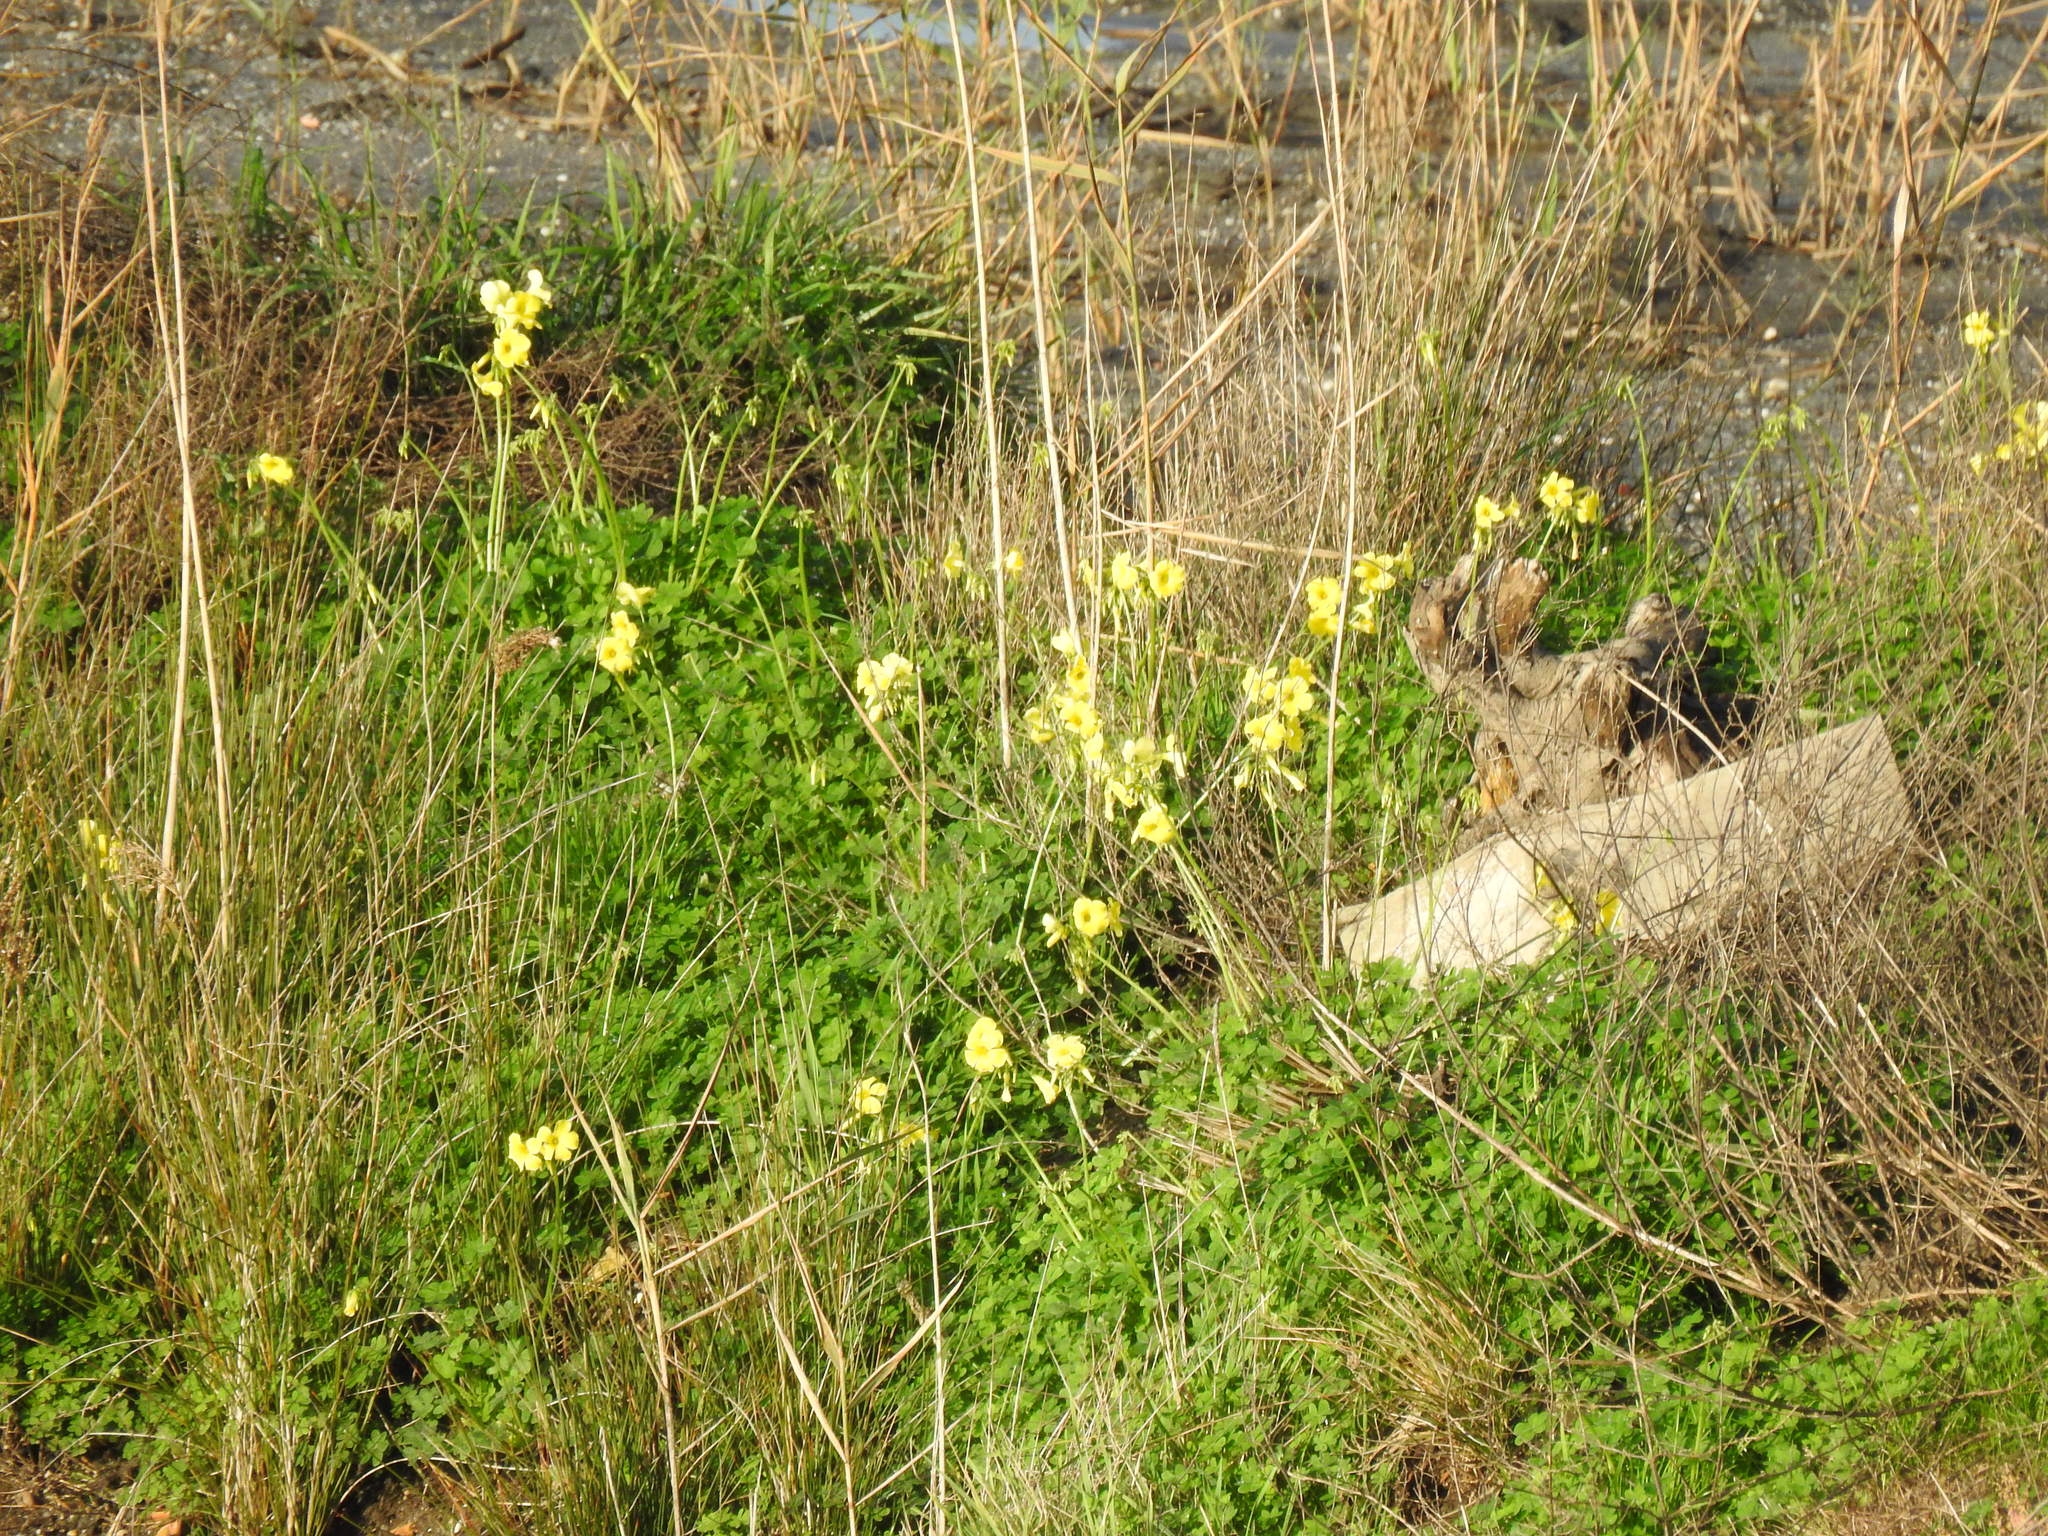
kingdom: Plantae
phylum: Tracheophyta
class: Magnoliopsida
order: Oxalidales
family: Oxalidaceae
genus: Oxalis
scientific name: Oxalis pes-caprae
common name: Bermuda-buttercup
